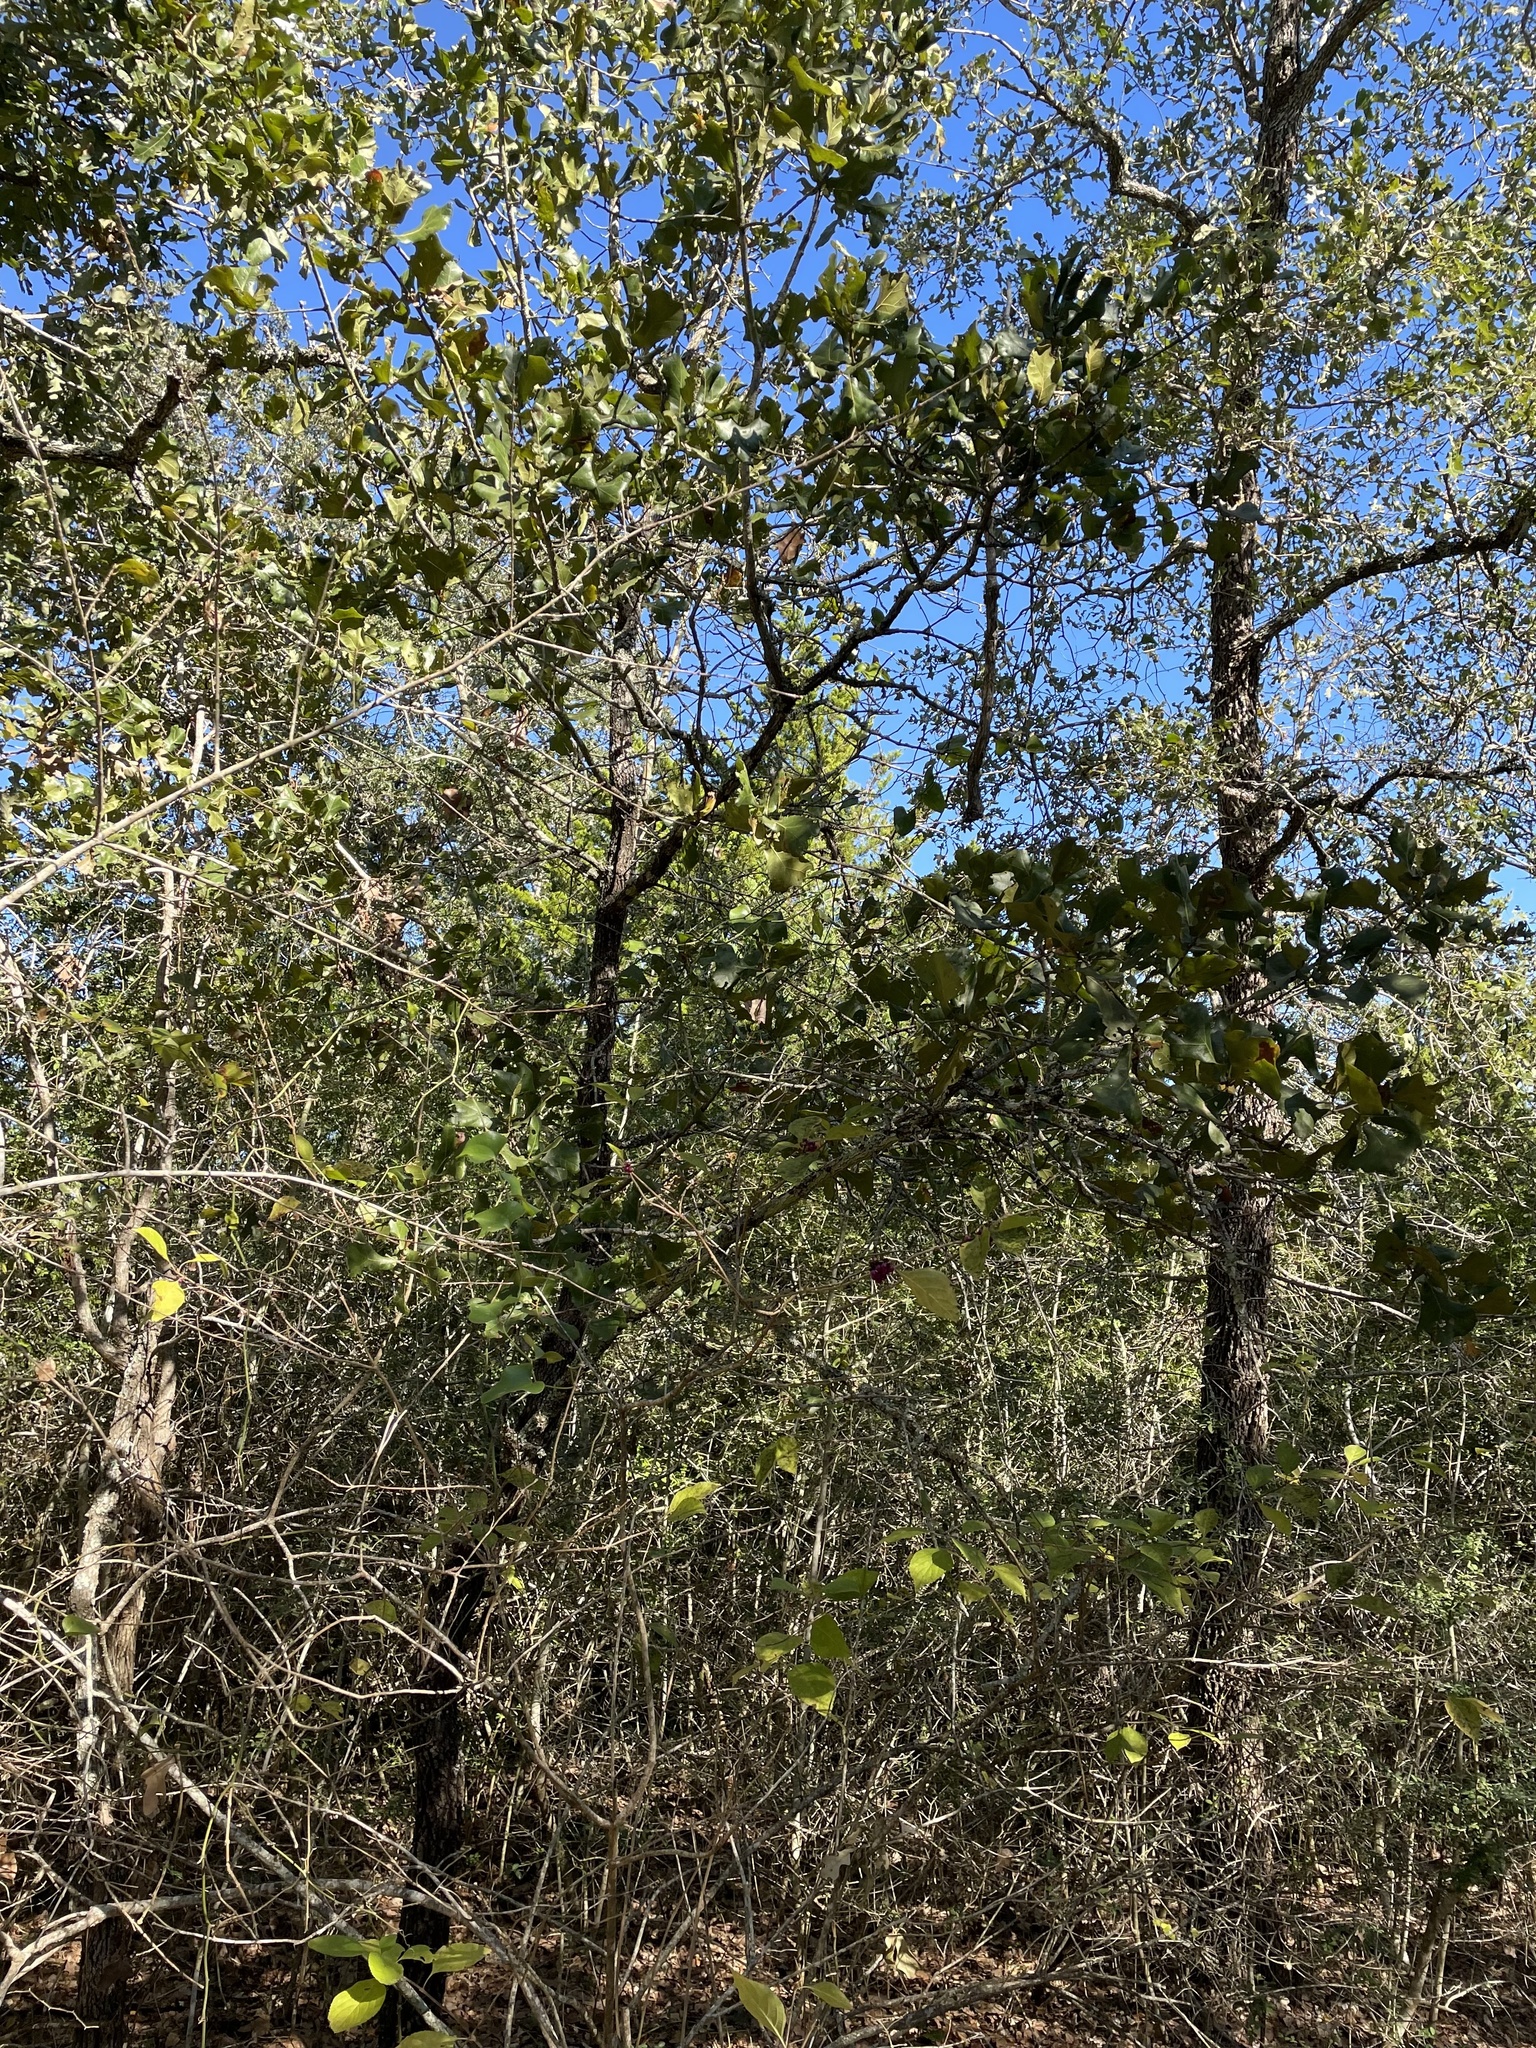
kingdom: Plantae
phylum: Tracheophyta
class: Magnoliopsida
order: Fagales
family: Fagaceae
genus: Quercus
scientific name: Quercus marilandica
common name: Blackjack oak
